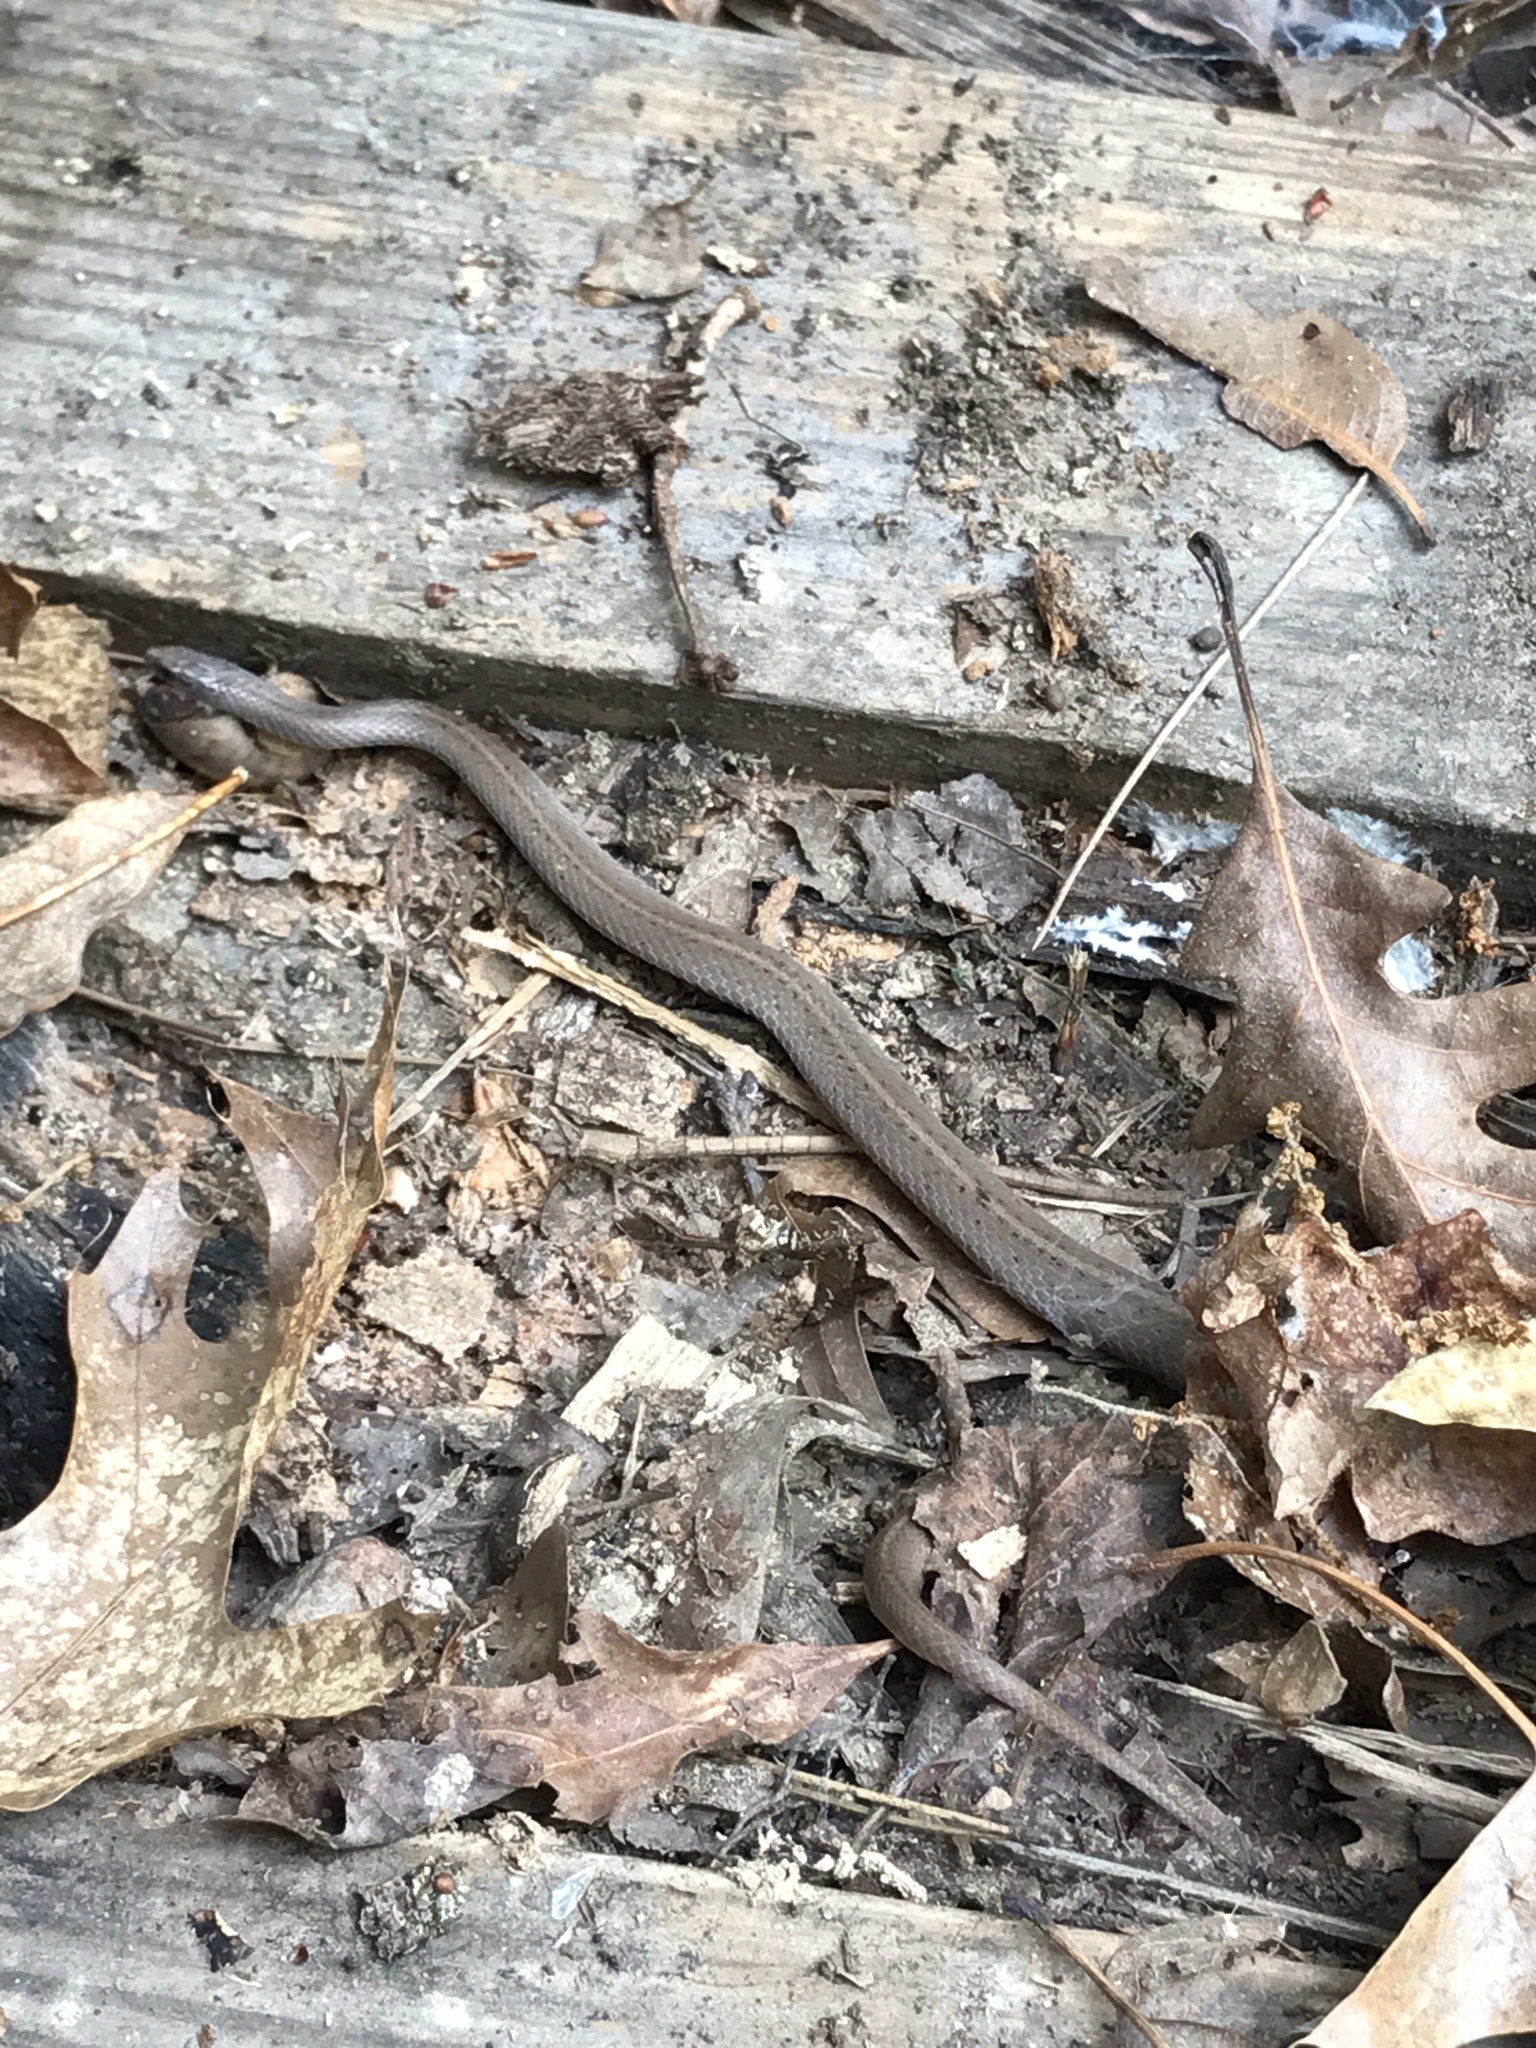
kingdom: Animalia
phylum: Chordata
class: Squamata
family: Colubridae
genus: Virginia
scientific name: Virginia valeriae
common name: Smooth earth snake
